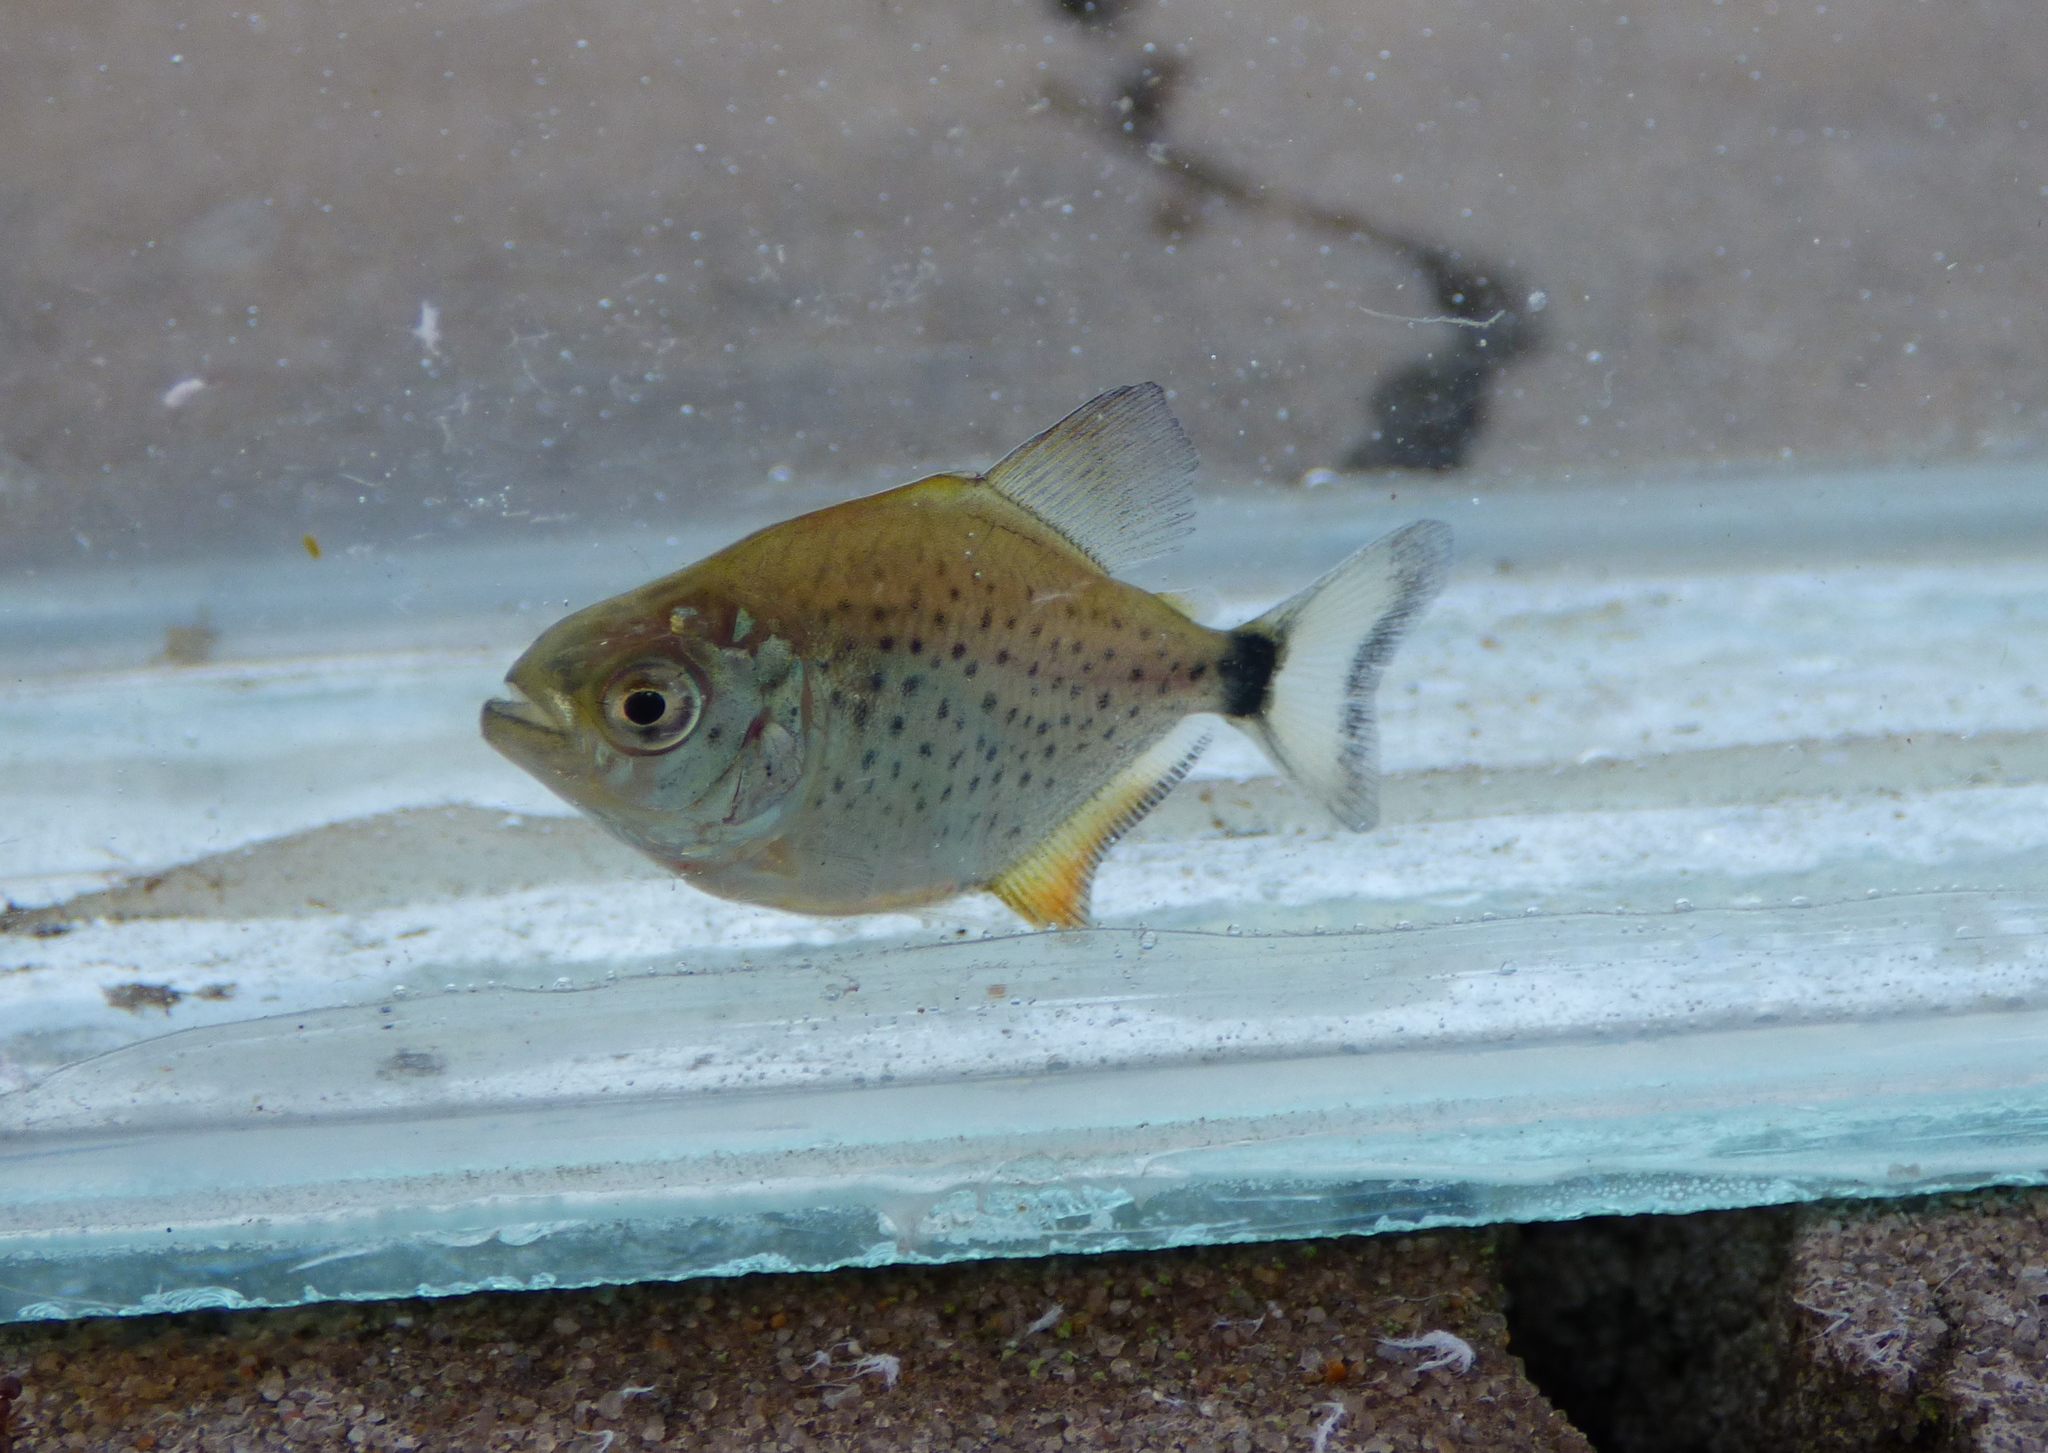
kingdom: Animalia
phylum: Chordata
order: Characiformes
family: Serrasalmidae
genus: Serrasalmus
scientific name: Serrasalmus maculatus
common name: Speckled piranha
